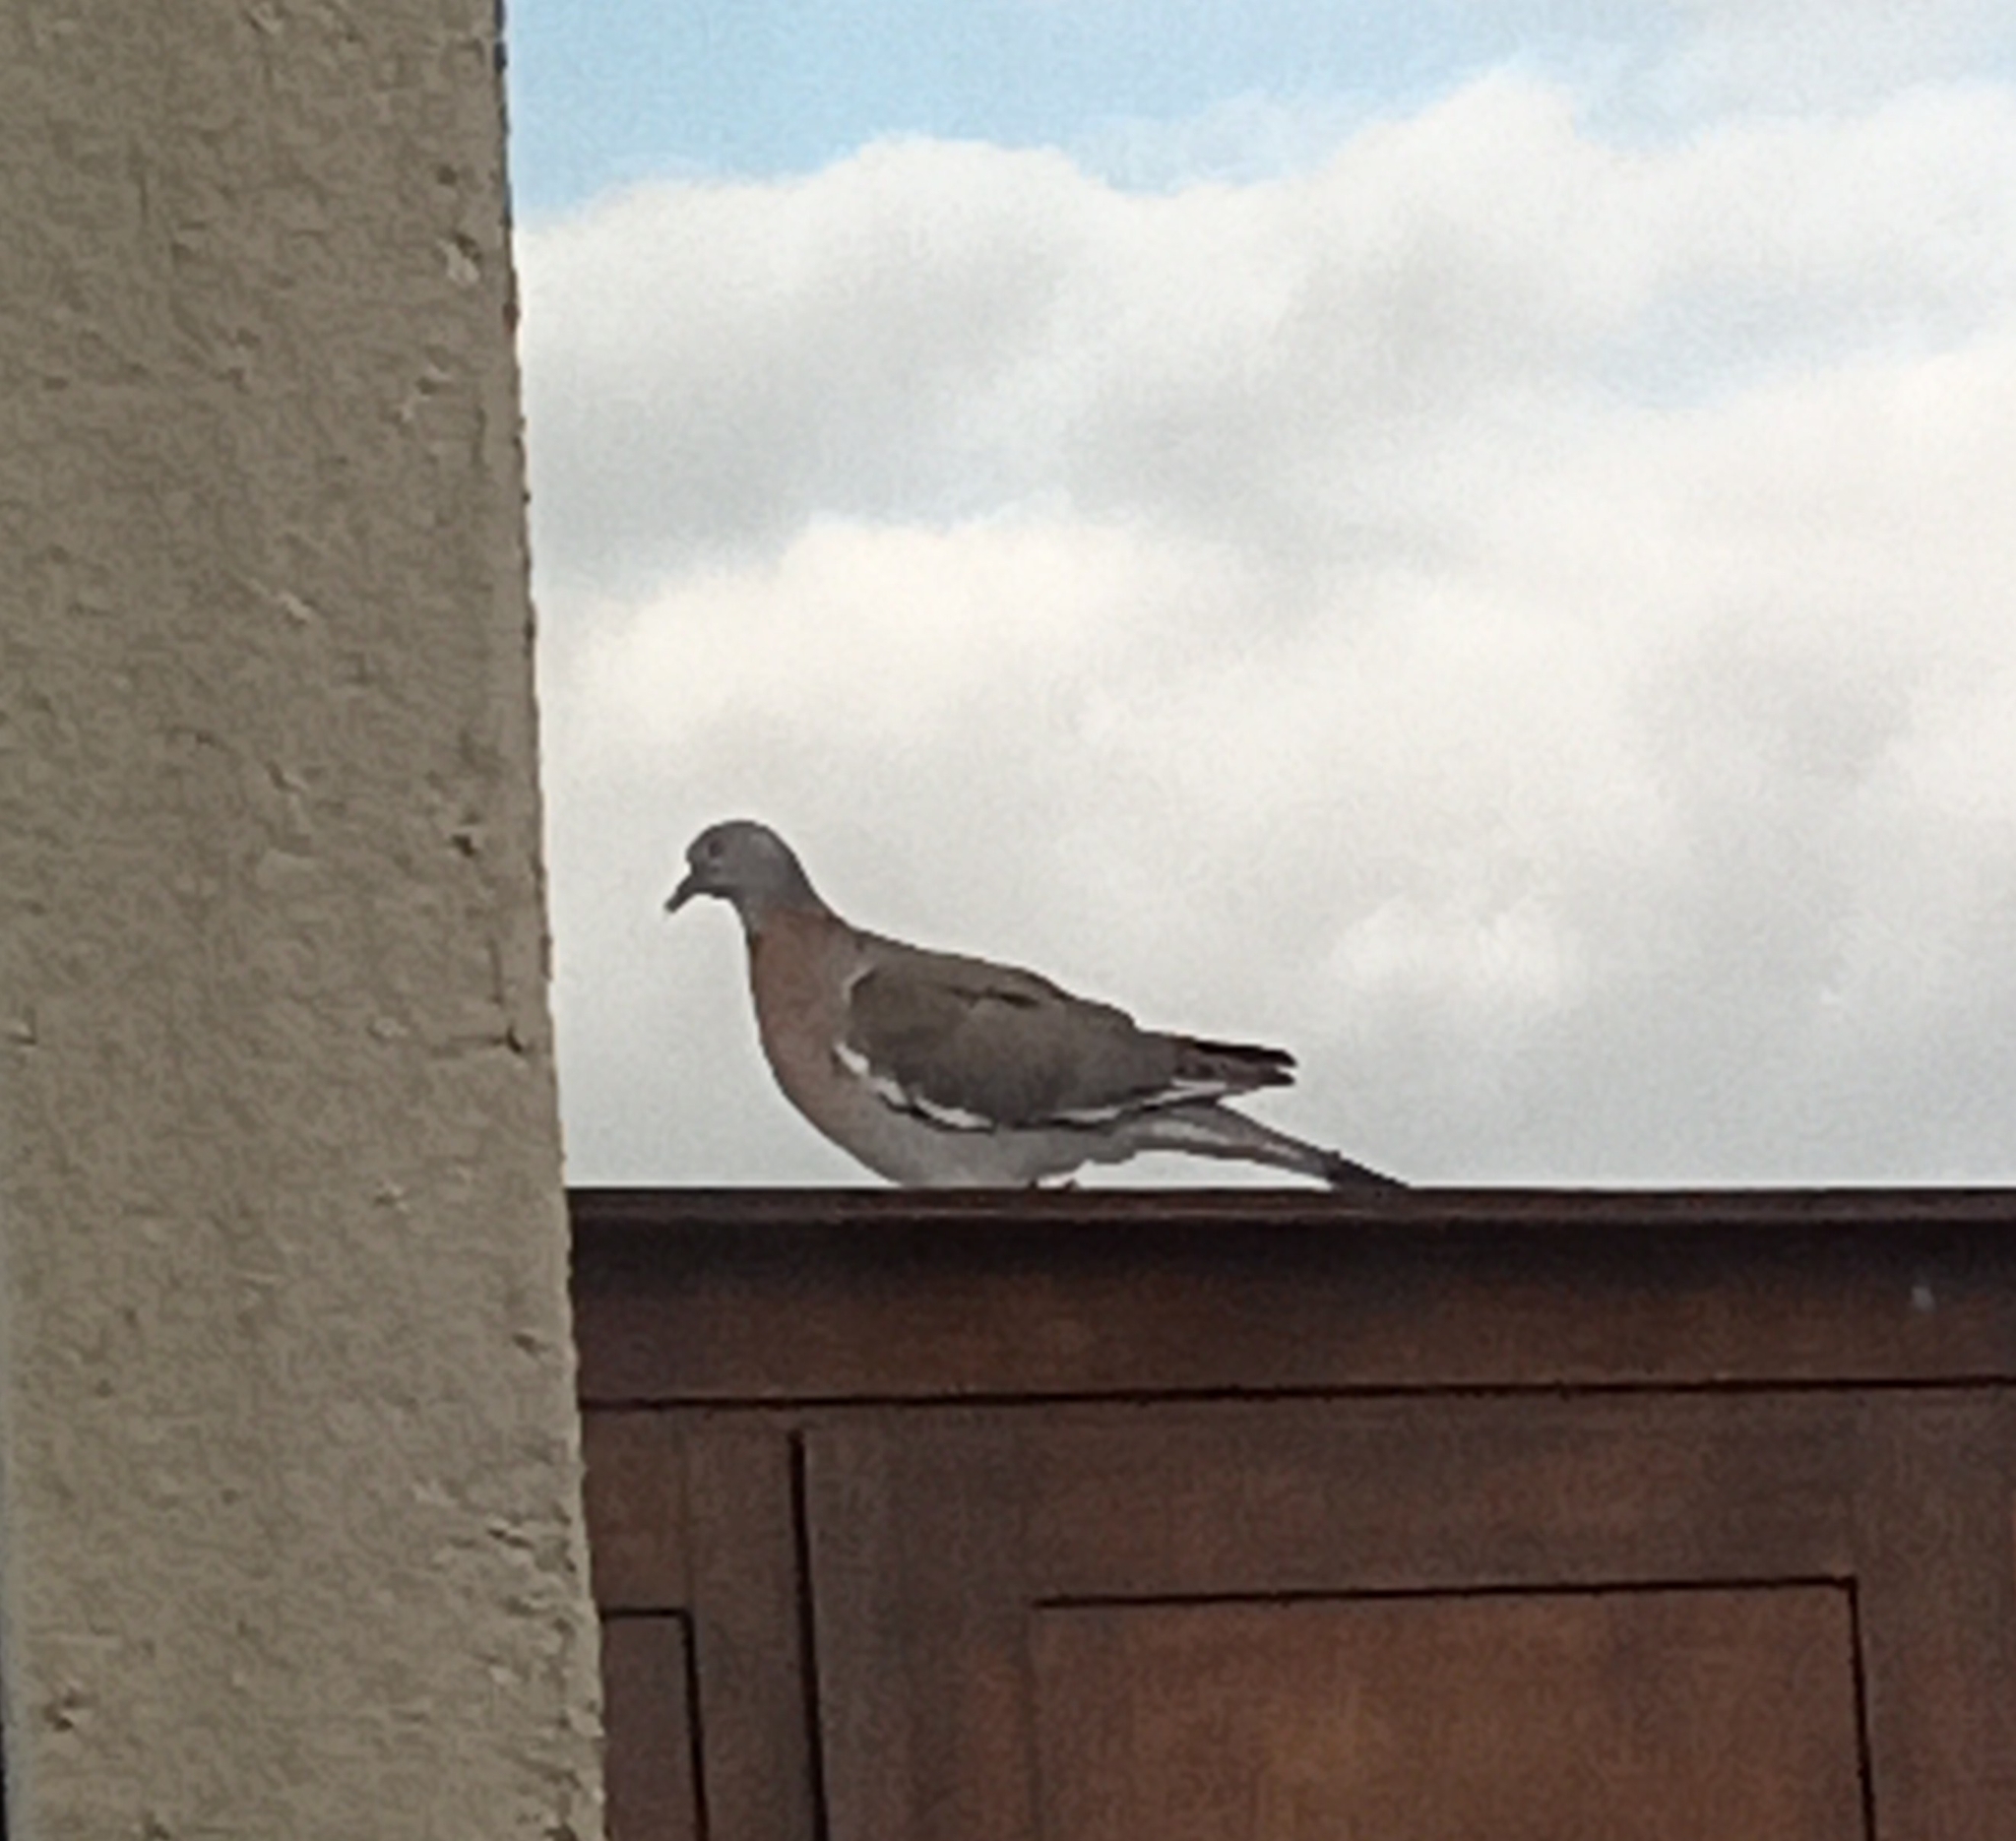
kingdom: Animalia
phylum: Chordata
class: Aves
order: Columbiformes
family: Columbidae
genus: Columba
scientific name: Columba palumbus
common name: Common wood pigeon
